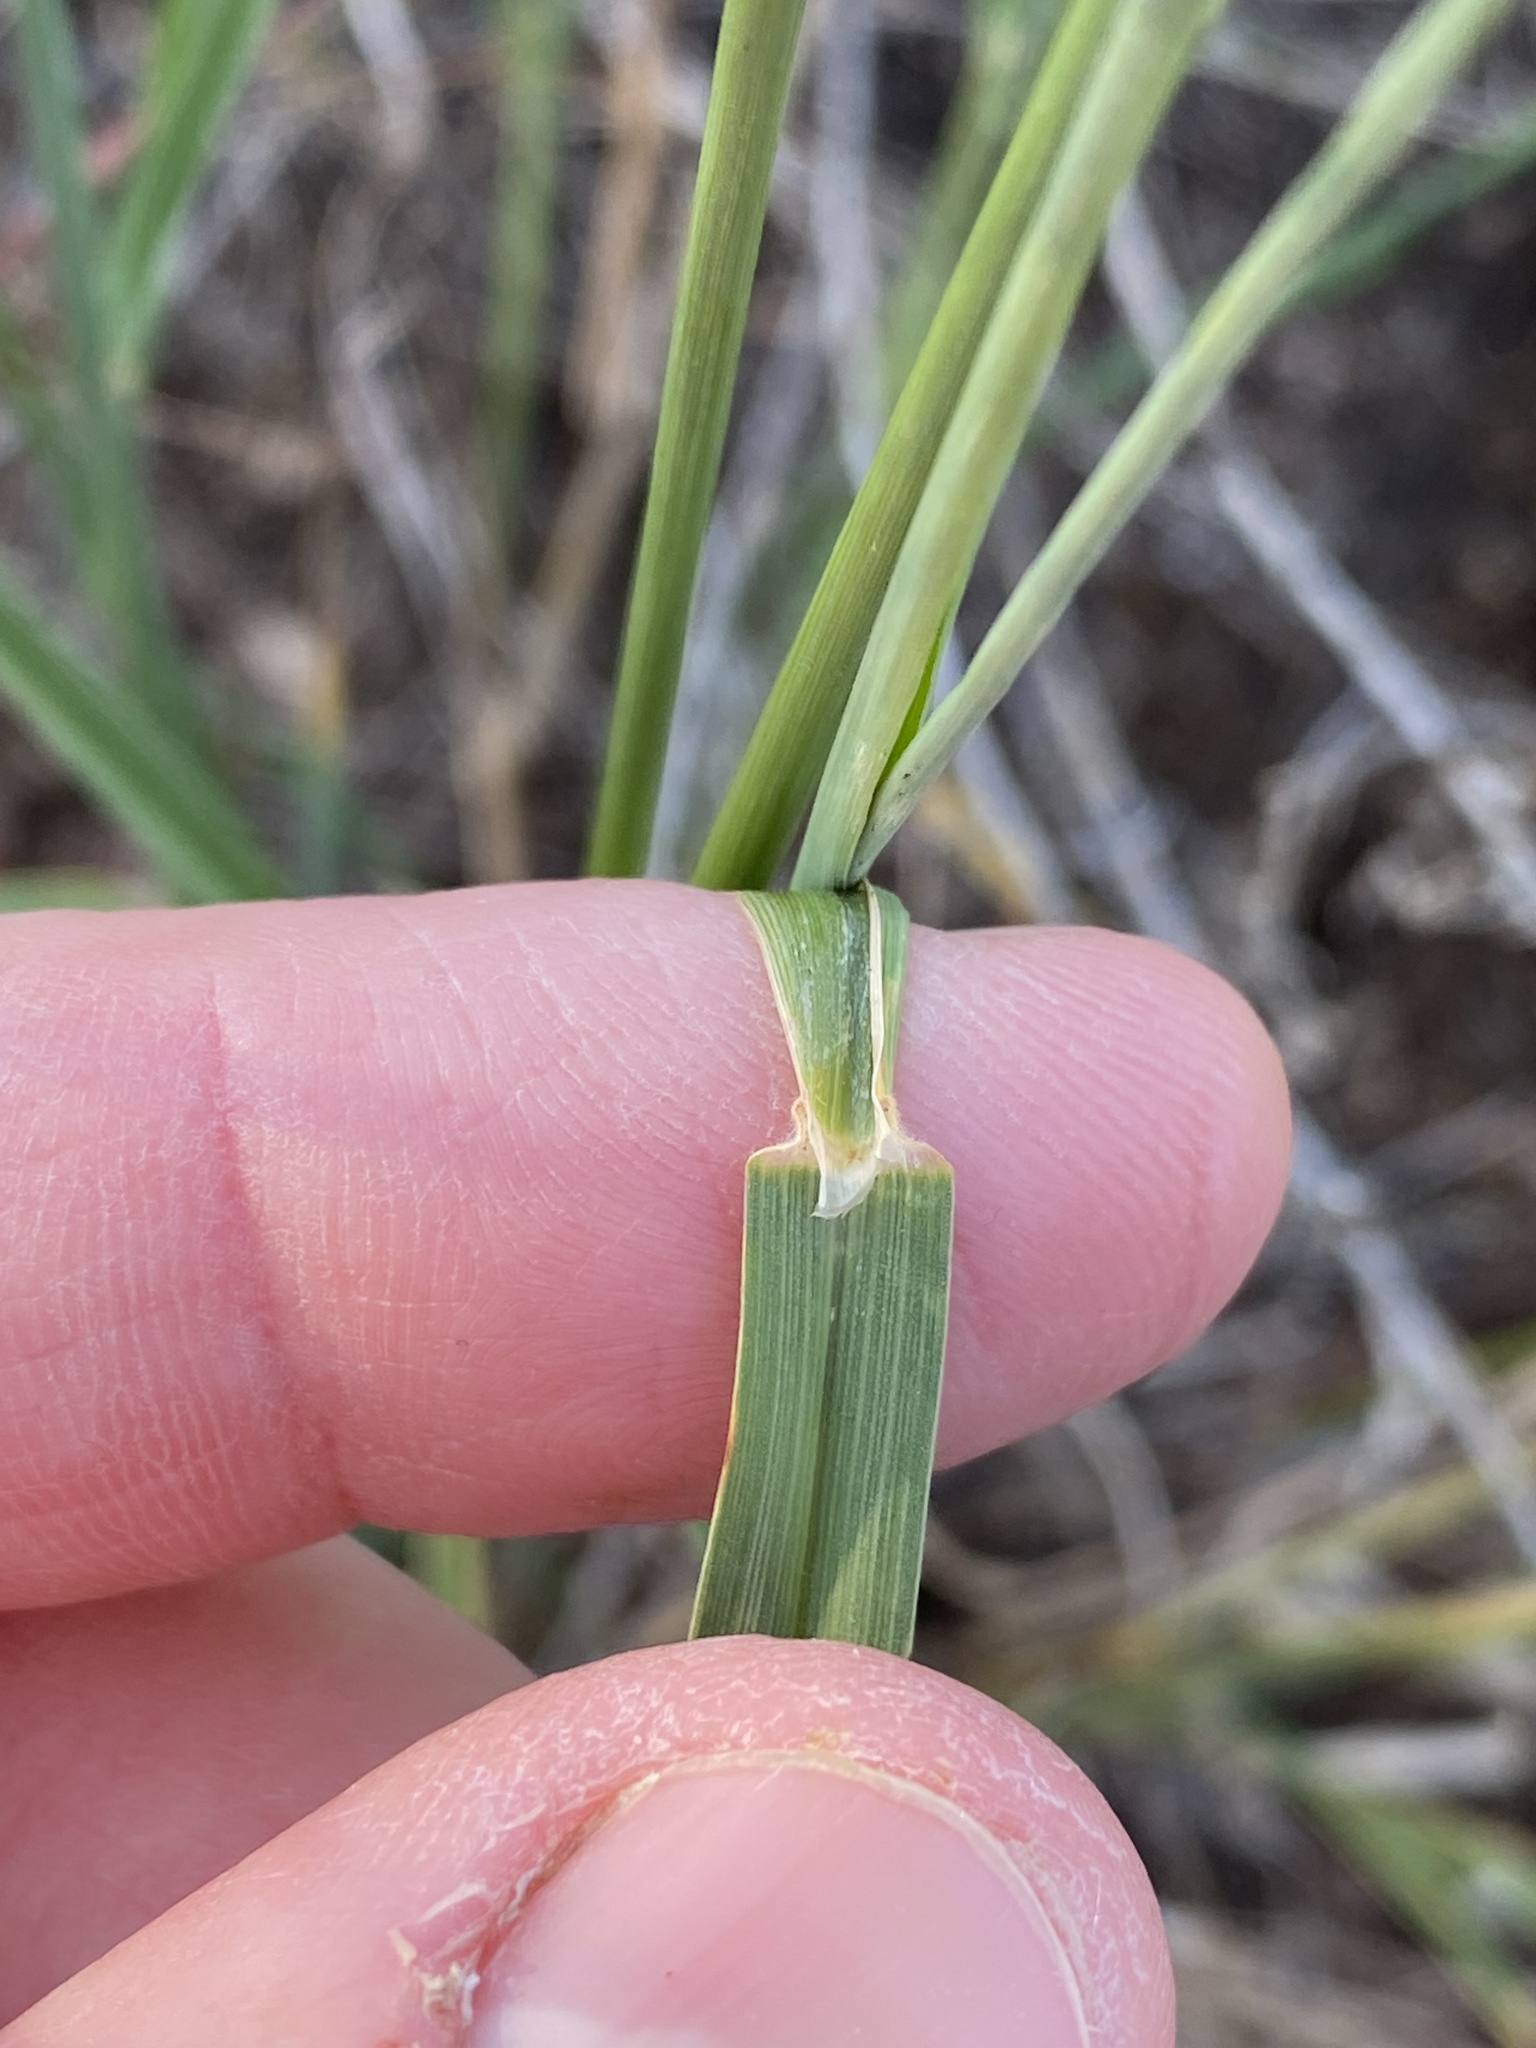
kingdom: Plantae
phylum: Tracheophyta
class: Liliopsida
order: Poales
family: Poaceae
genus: Digitaria
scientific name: Digitaria californica
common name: Arizona cottontop
